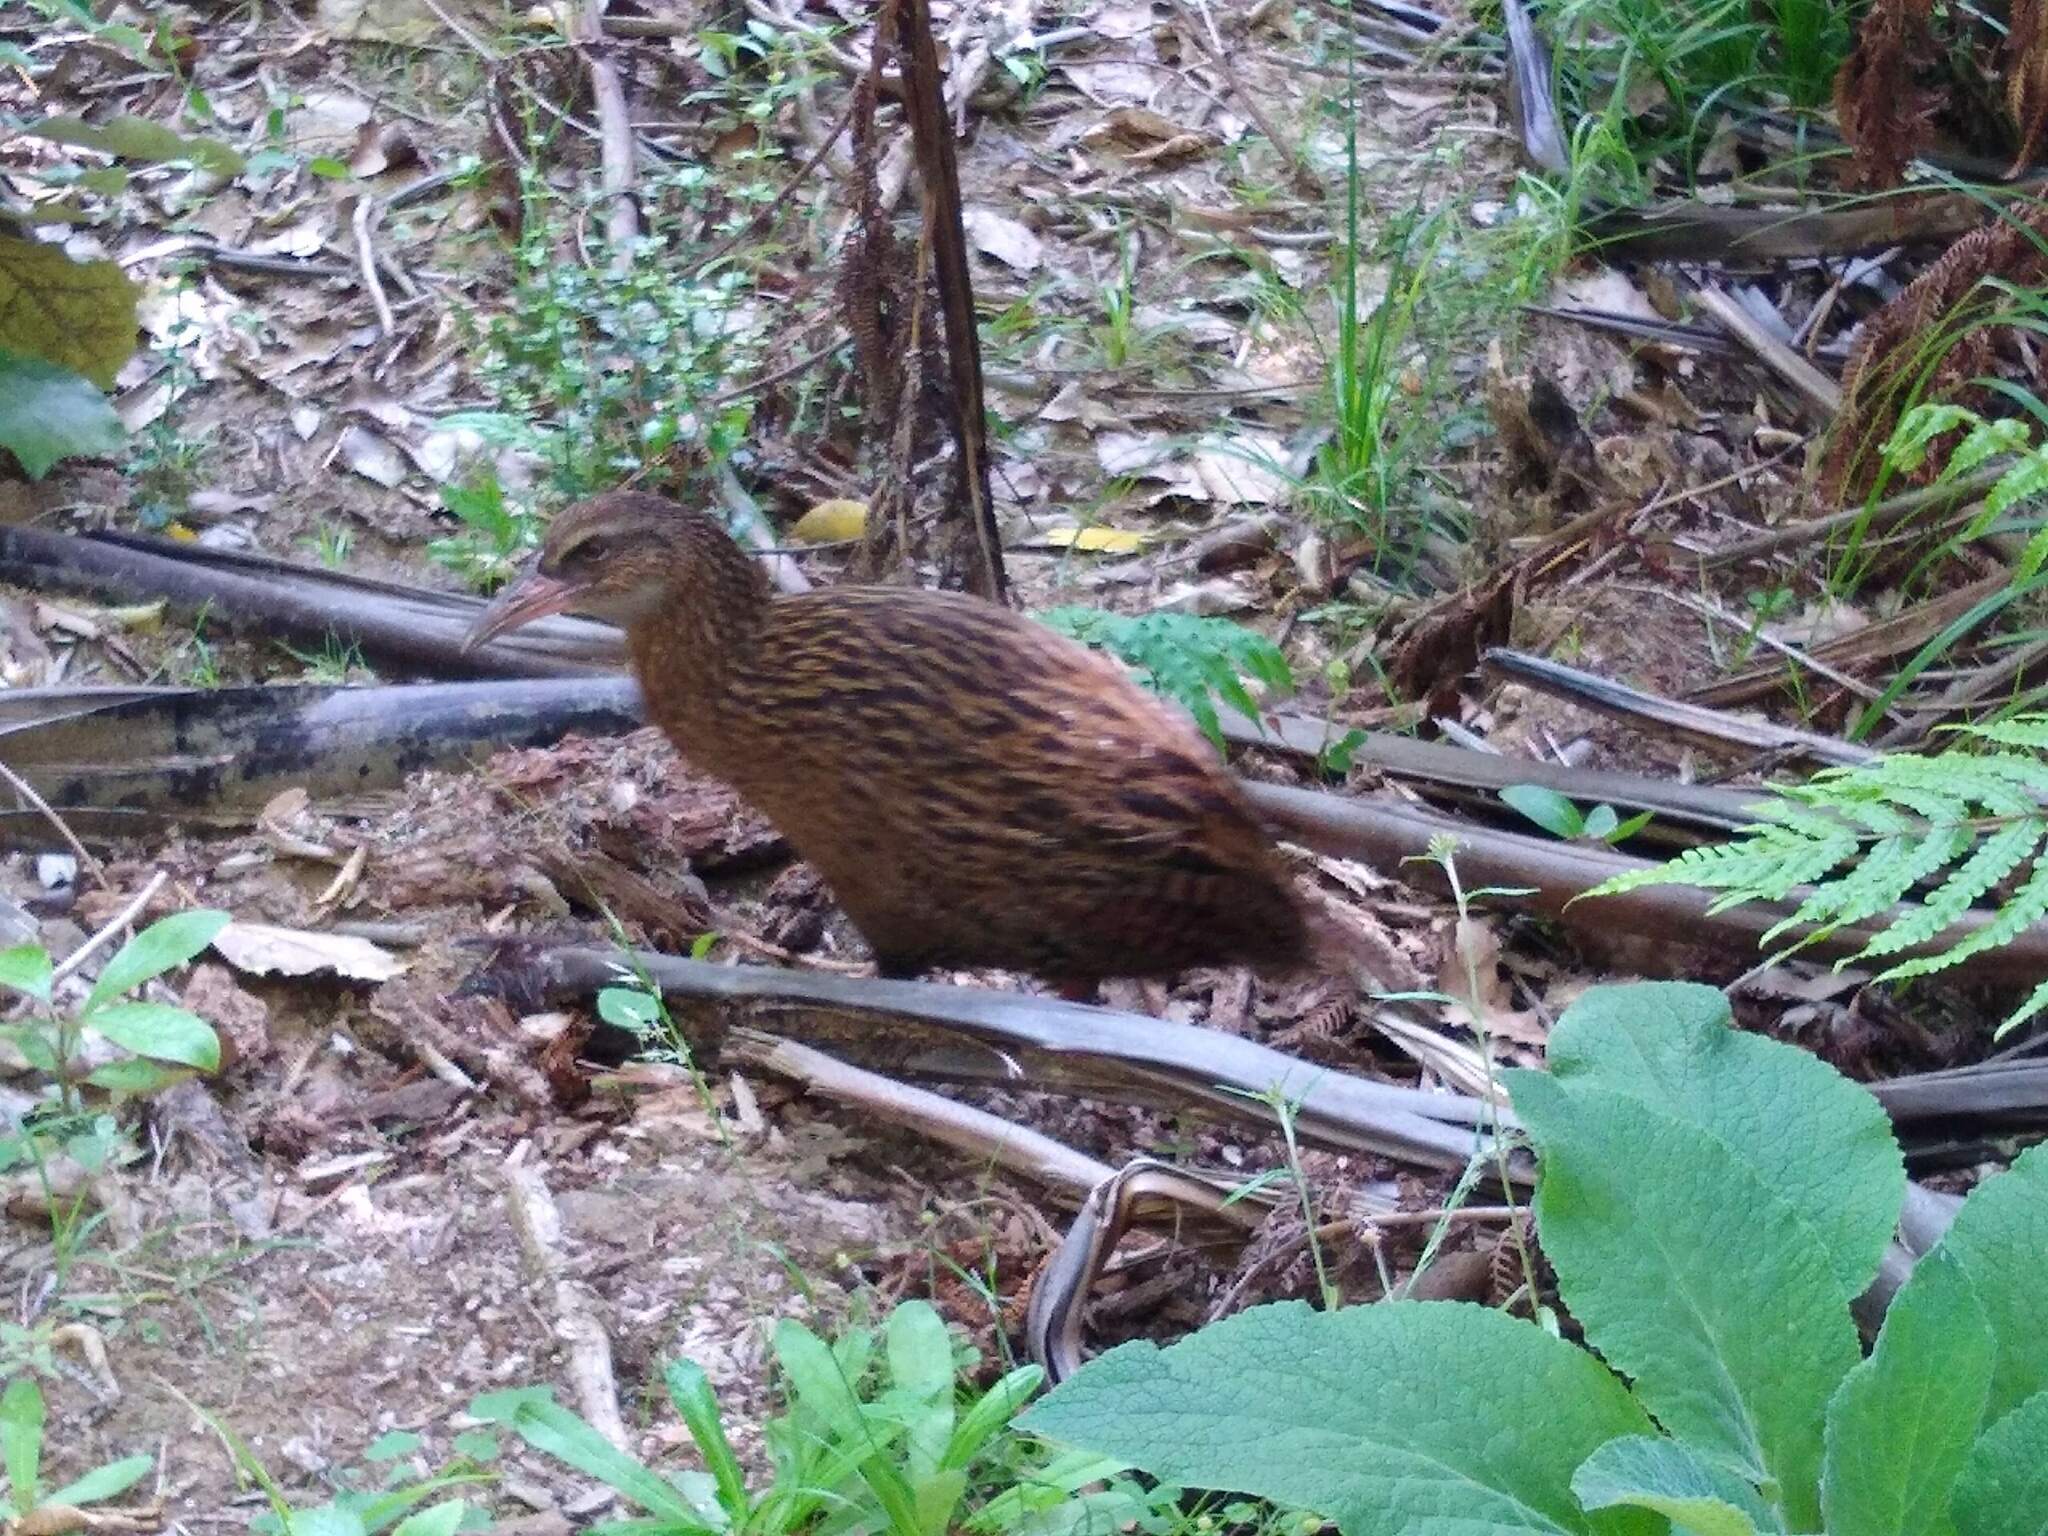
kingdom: Animalia
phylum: Chordata
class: Aves
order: Gruiformes
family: Rallidae
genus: Gallirallus
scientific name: Gallirallus australis
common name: Weka
